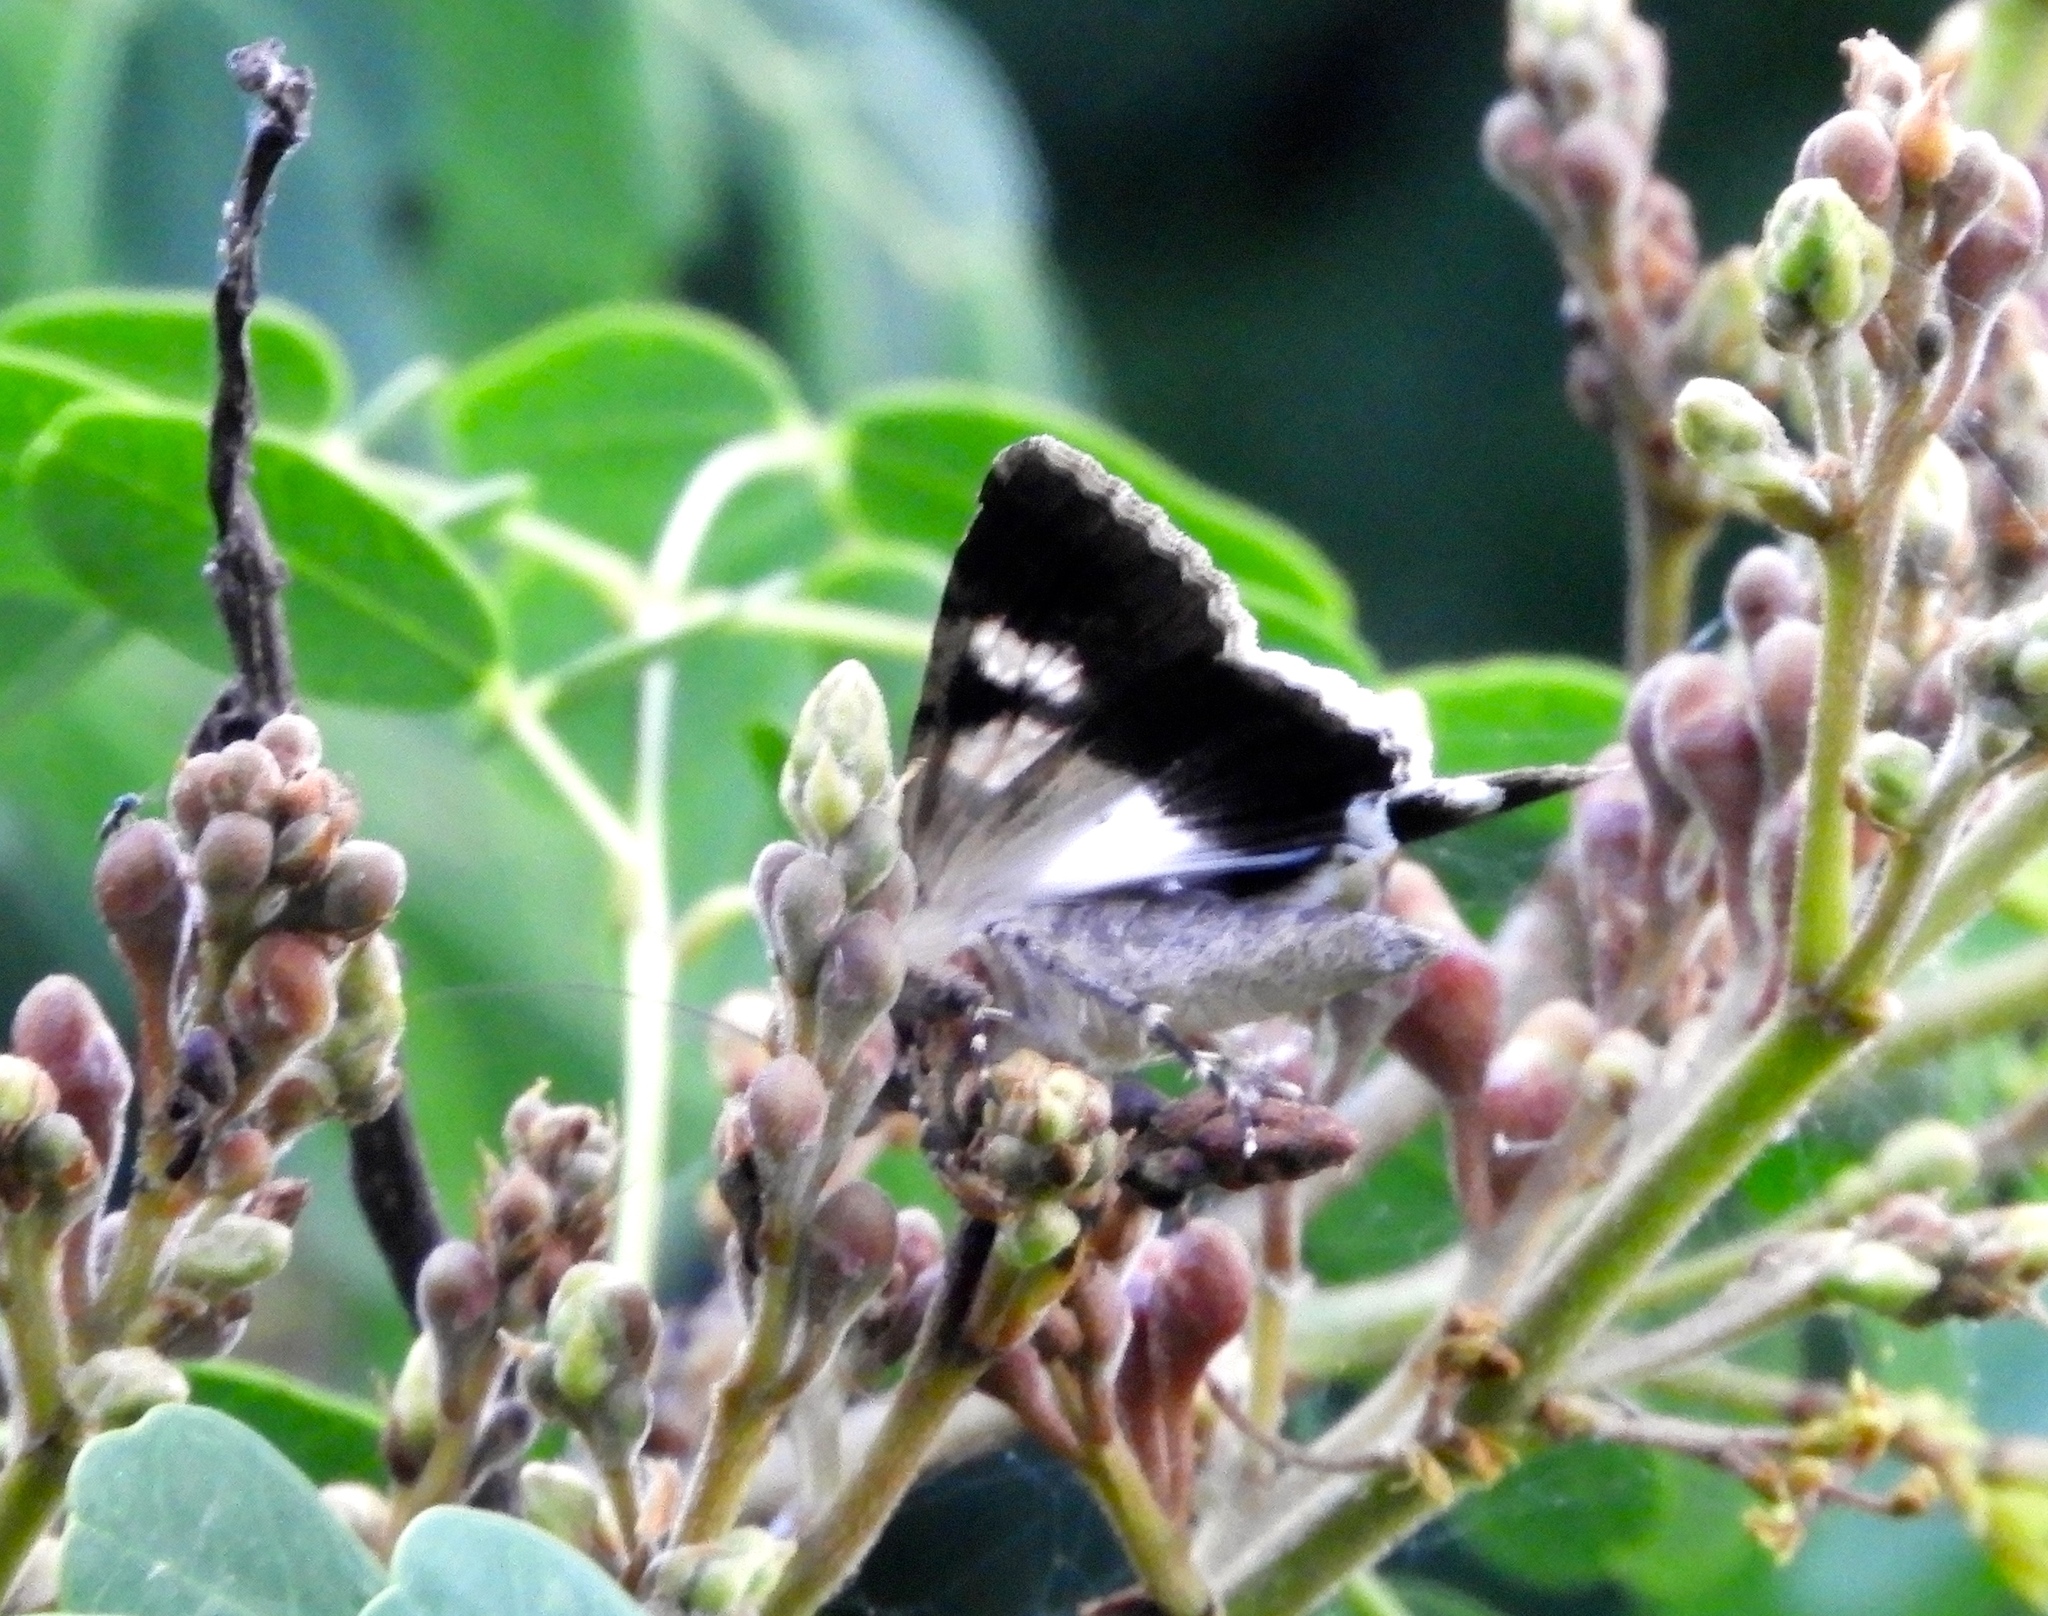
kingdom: Animalia
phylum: Arthropoda
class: Insecta
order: Lepidoptera
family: Erebidae
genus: Melipotis
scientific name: Melipotis
